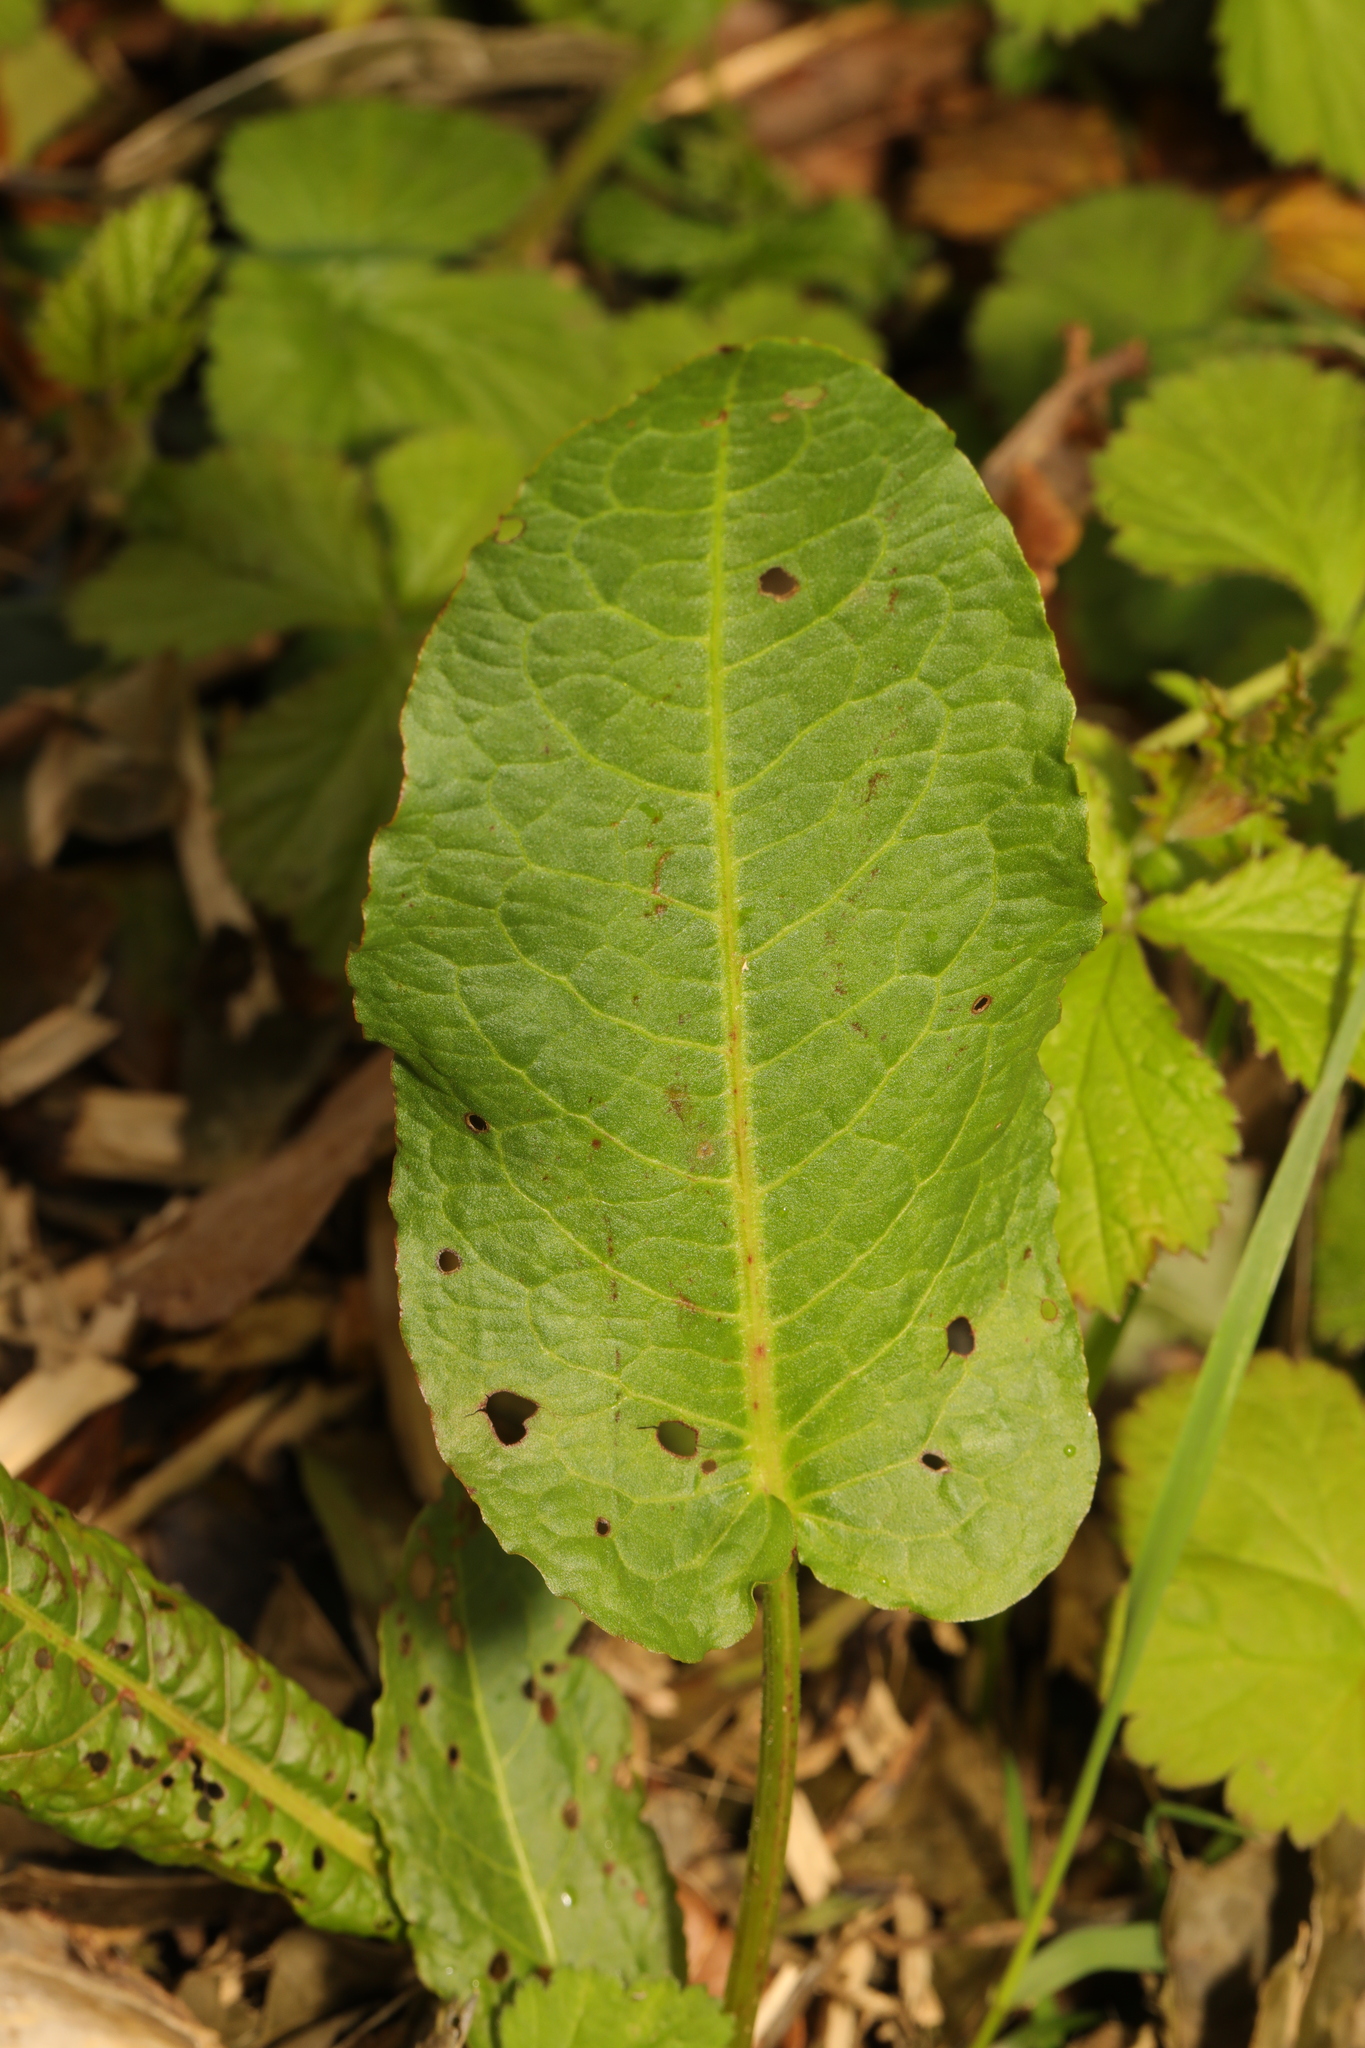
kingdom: Plantae
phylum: Tracheophyta
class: Magnoliopsida
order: Caryophyllales
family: Polygonaceae
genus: Rumex
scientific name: Rumex obtusifolius
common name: Bitter dock
